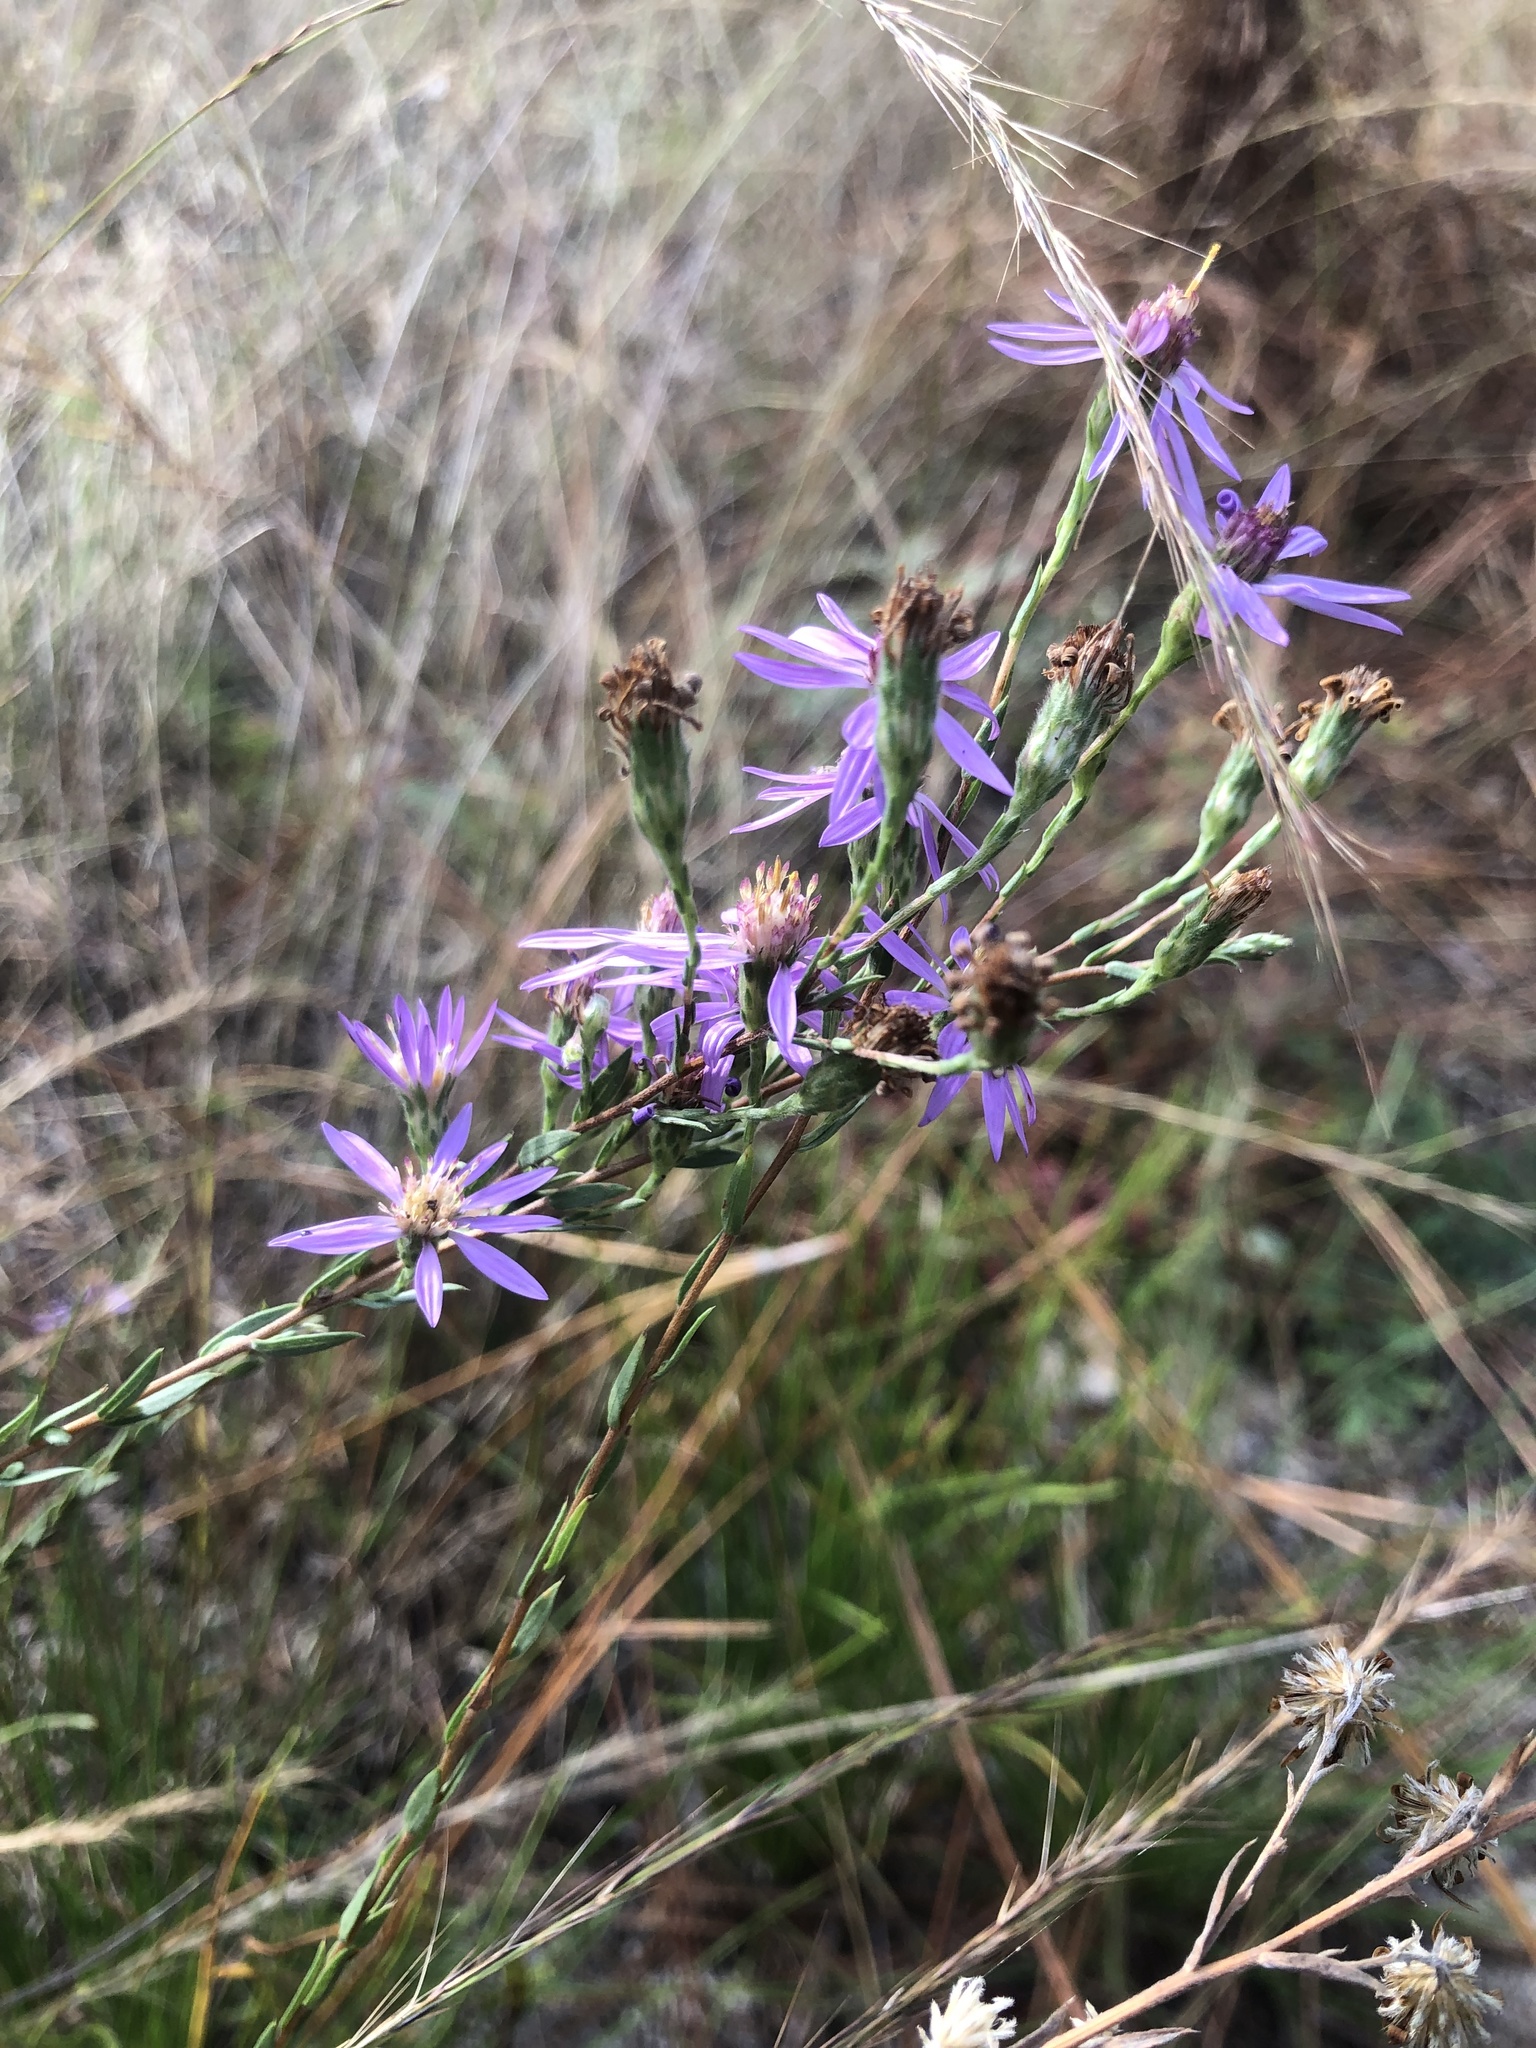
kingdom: Plantae
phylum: Tracheophyta
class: Magnoliopsida
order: Asterales
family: Asteraceae
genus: Symphyotrichum
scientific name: Symphyotrichum concolor
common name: Eastern silver aster
